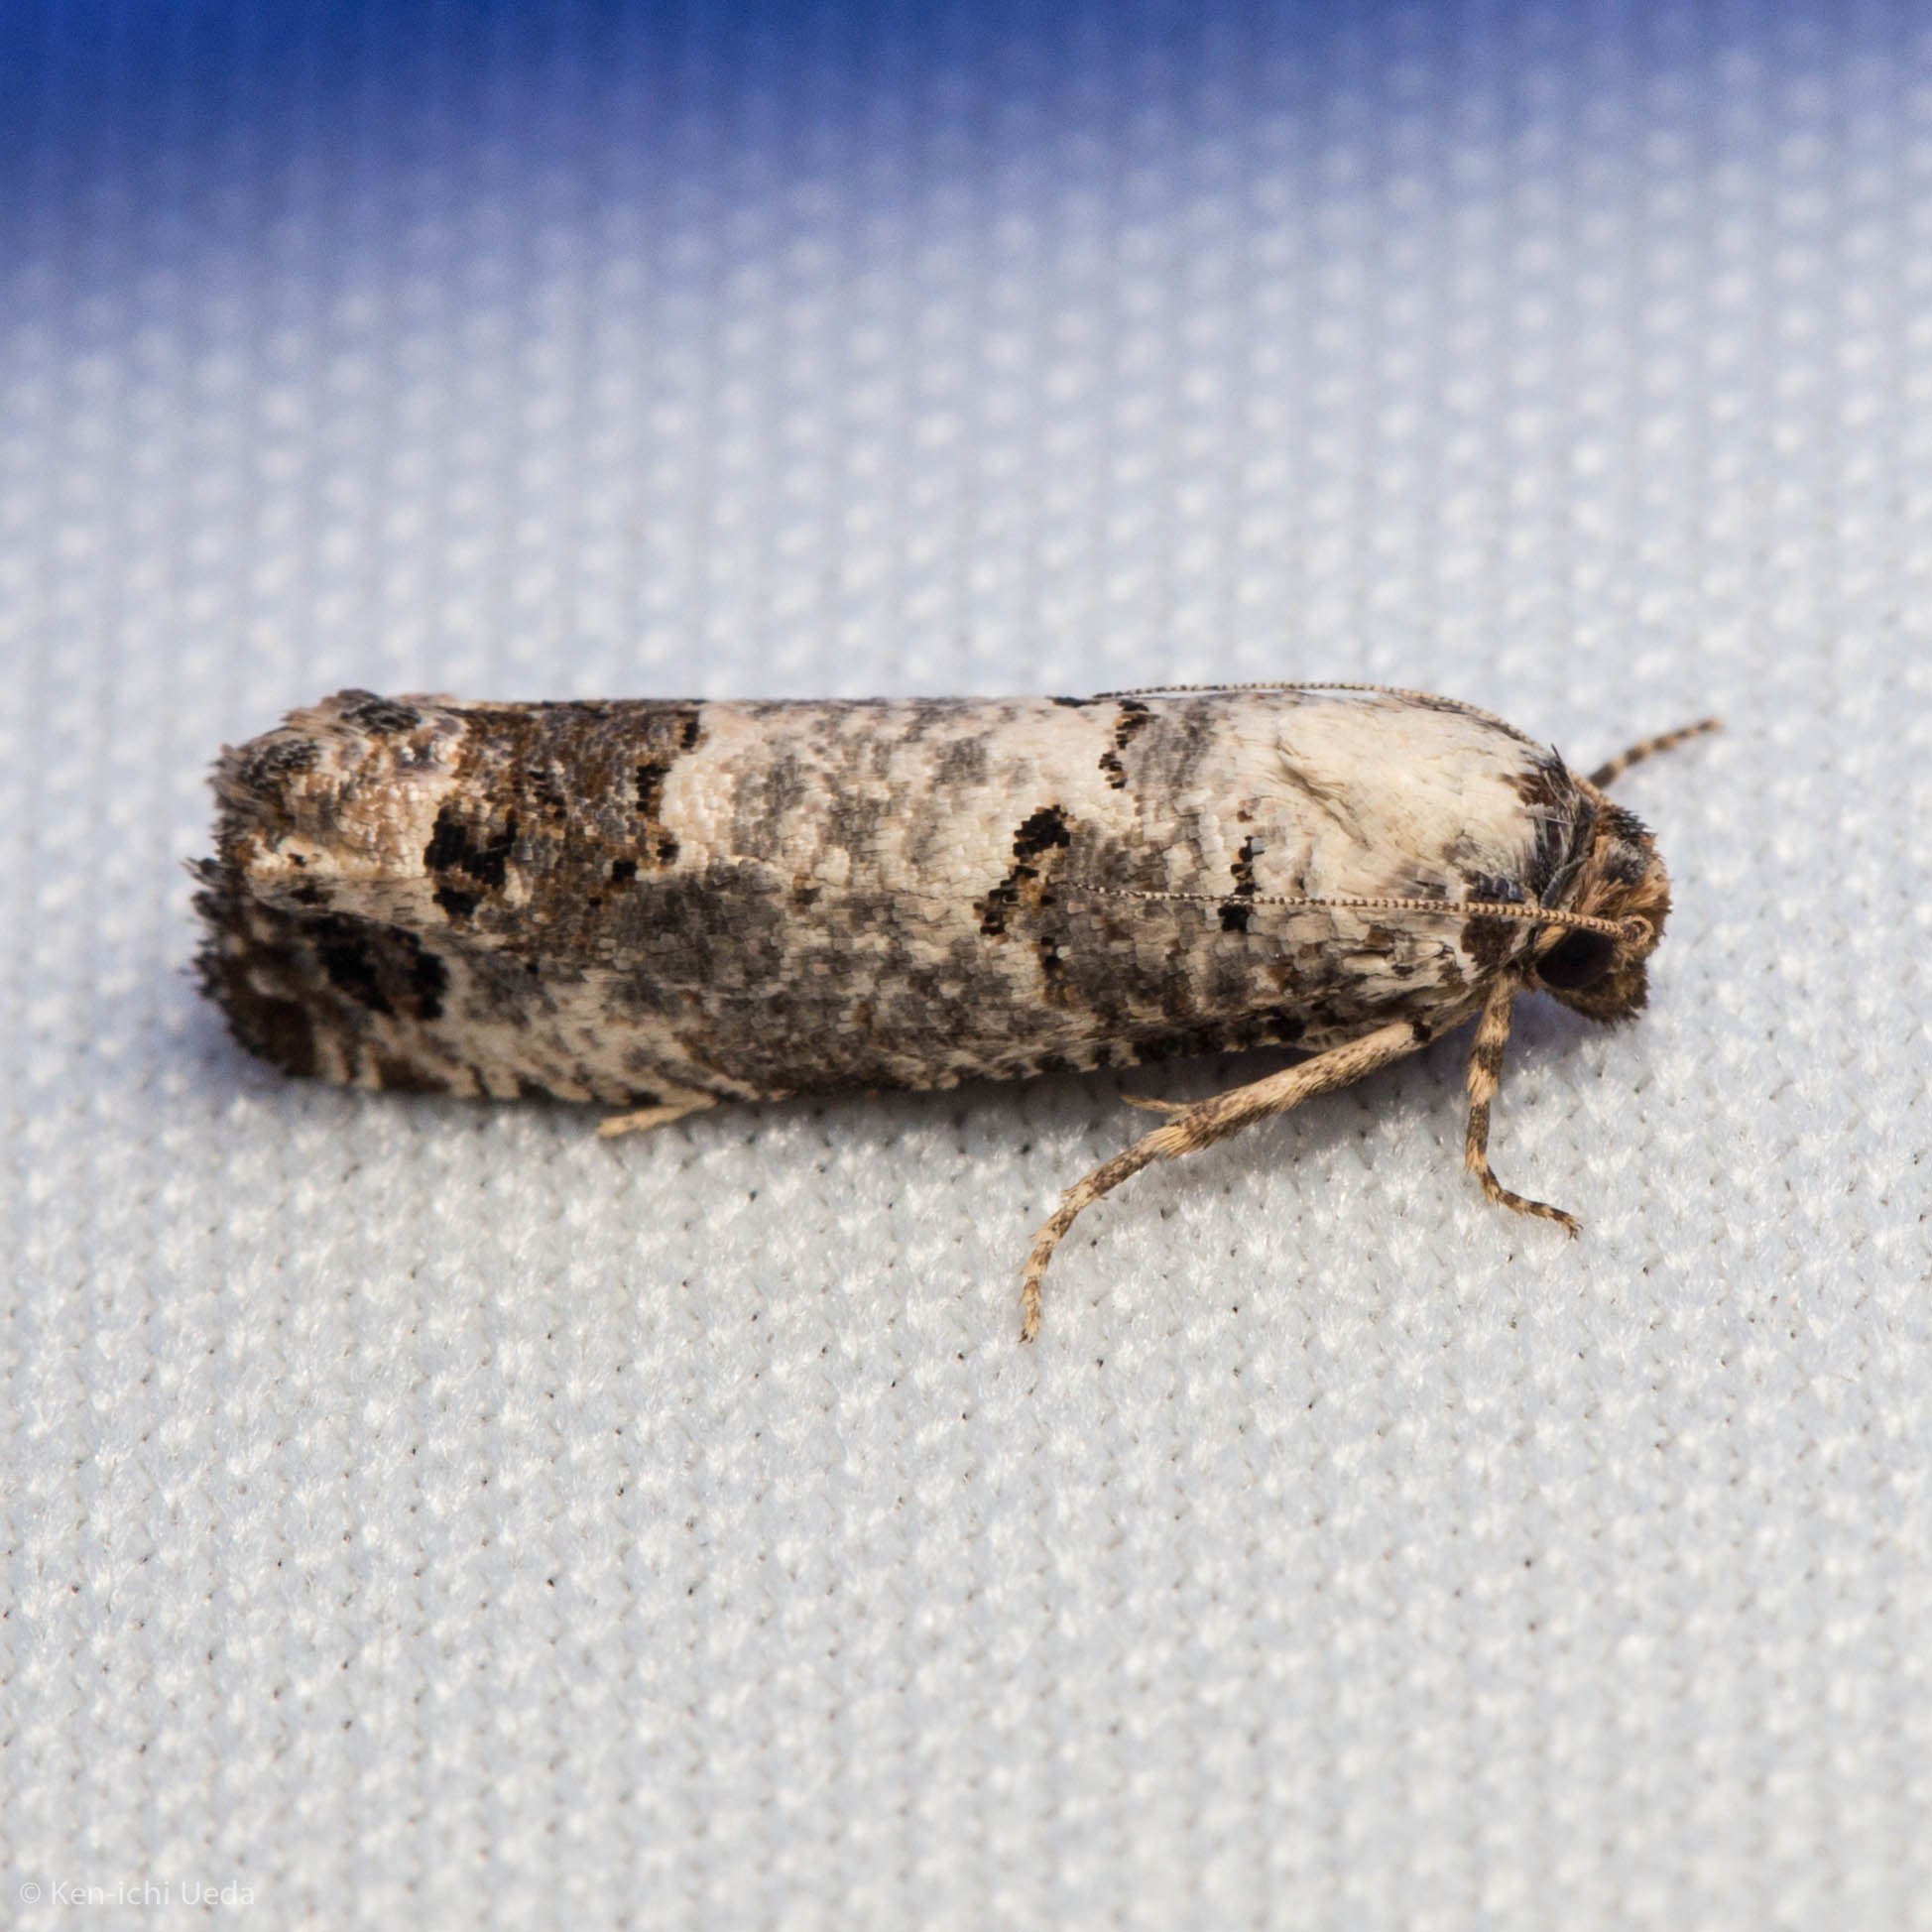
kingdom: Animalia
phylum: Arthropoda
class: Insecta
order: Lepidoptera
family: Tortricidae
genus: Pelochrista
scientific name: Pelochrista eburata
